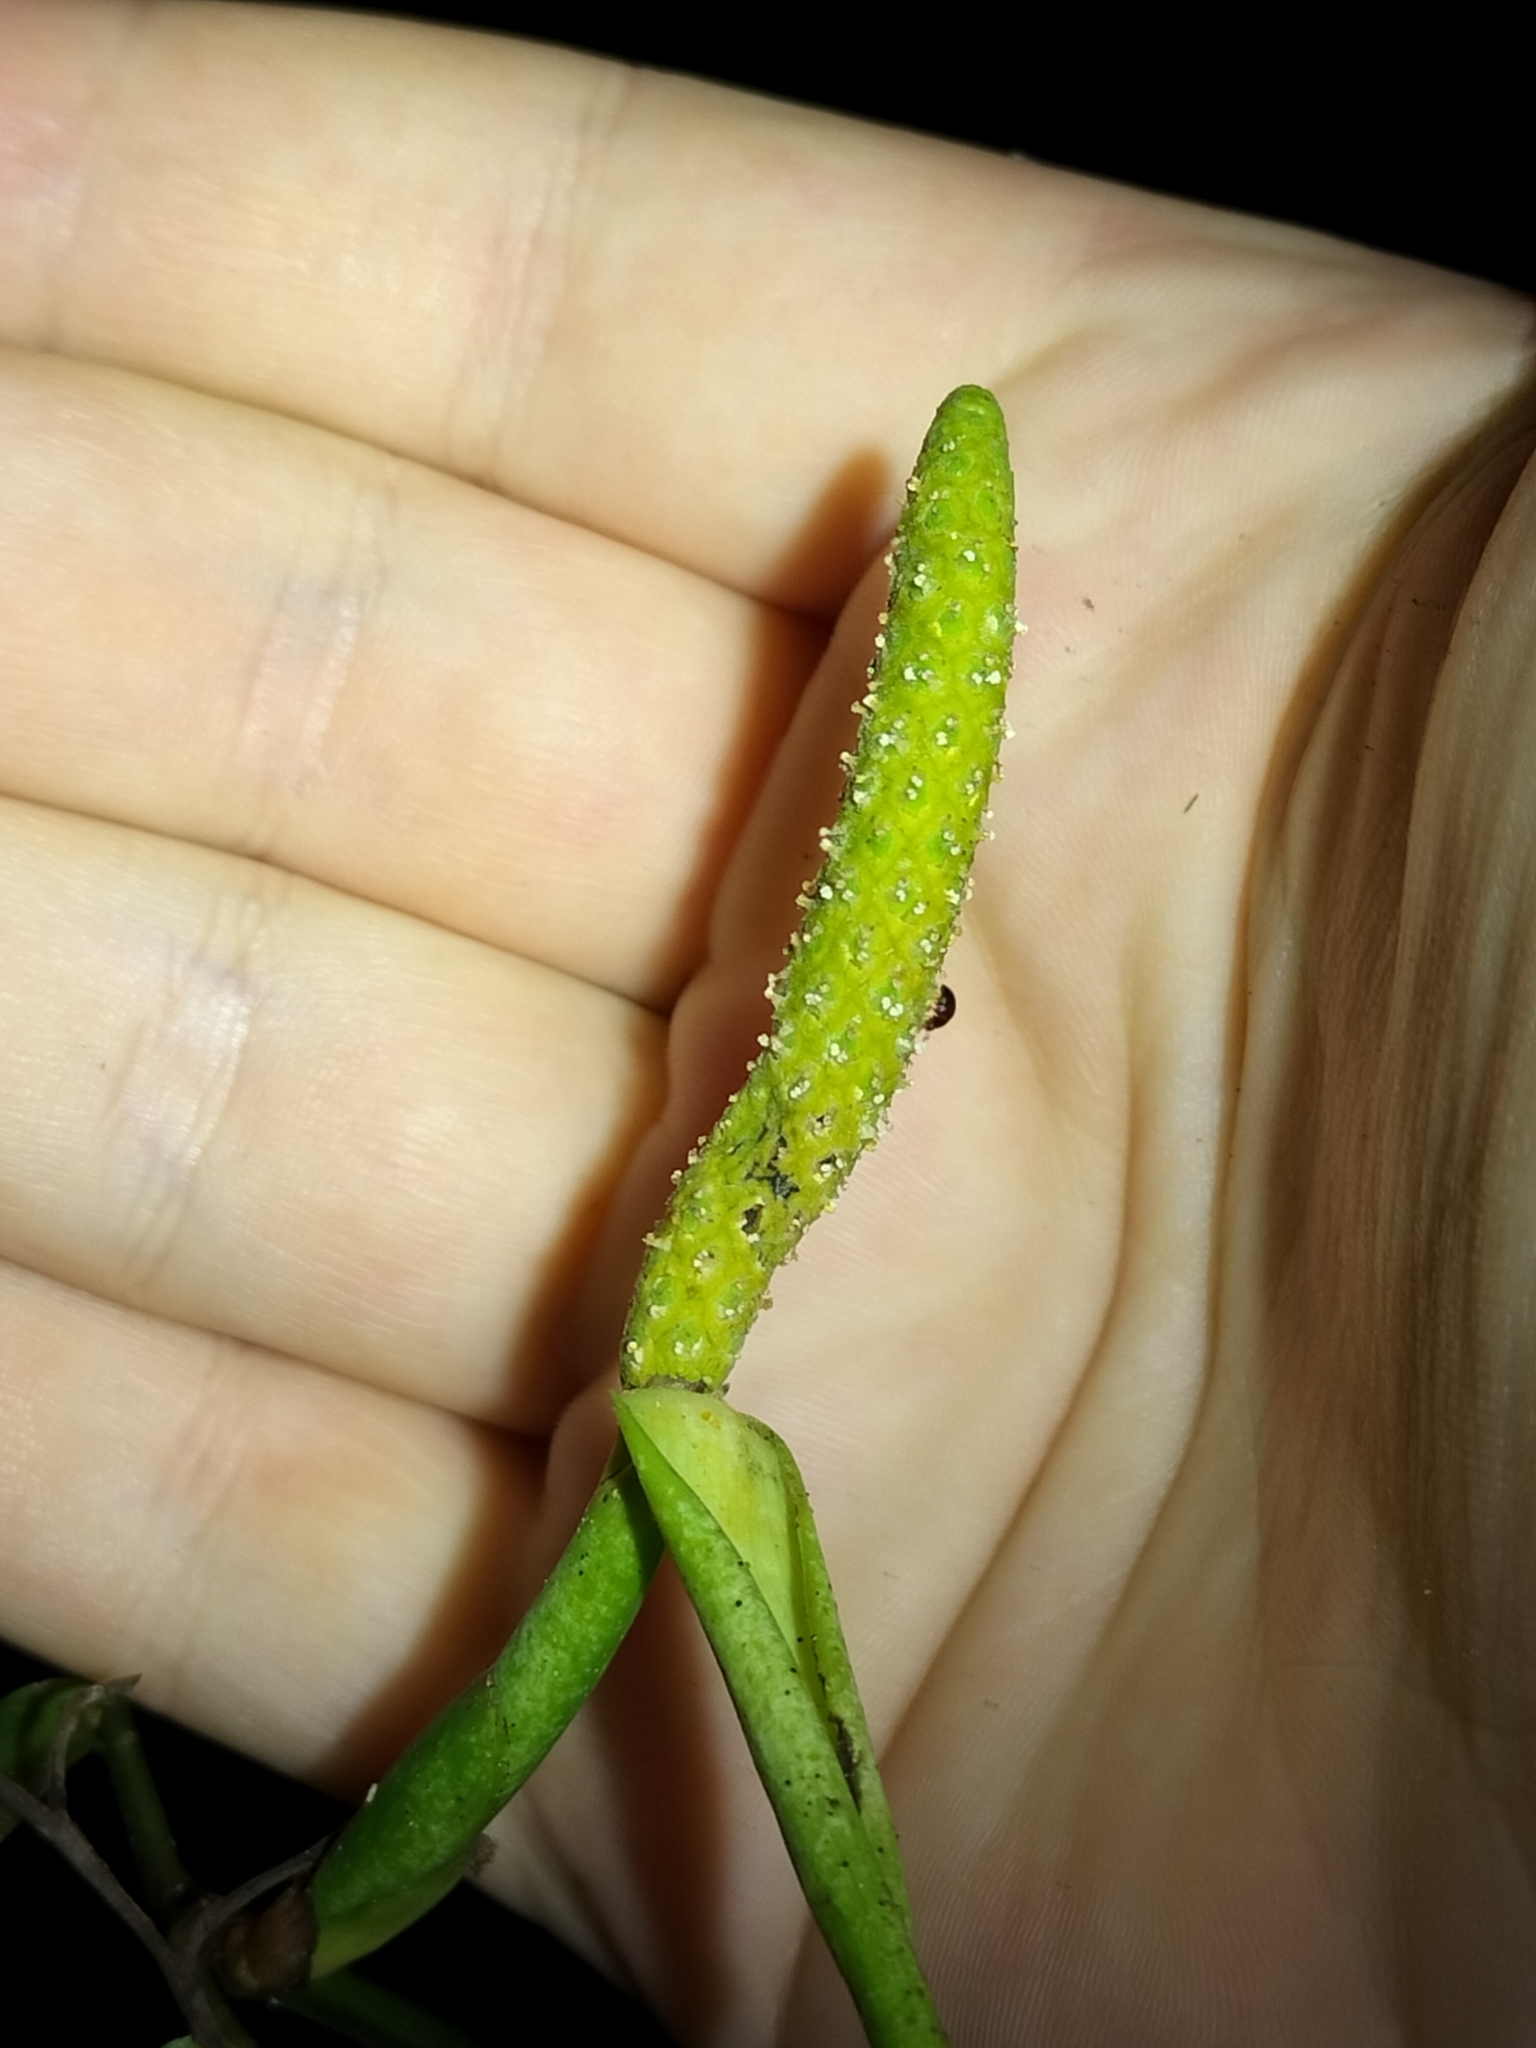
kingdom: Plantae
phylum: Tracheophyta
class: Liliopsida
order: Alismatales
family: Araceae
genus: Pothos
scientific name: Pothos longipes
